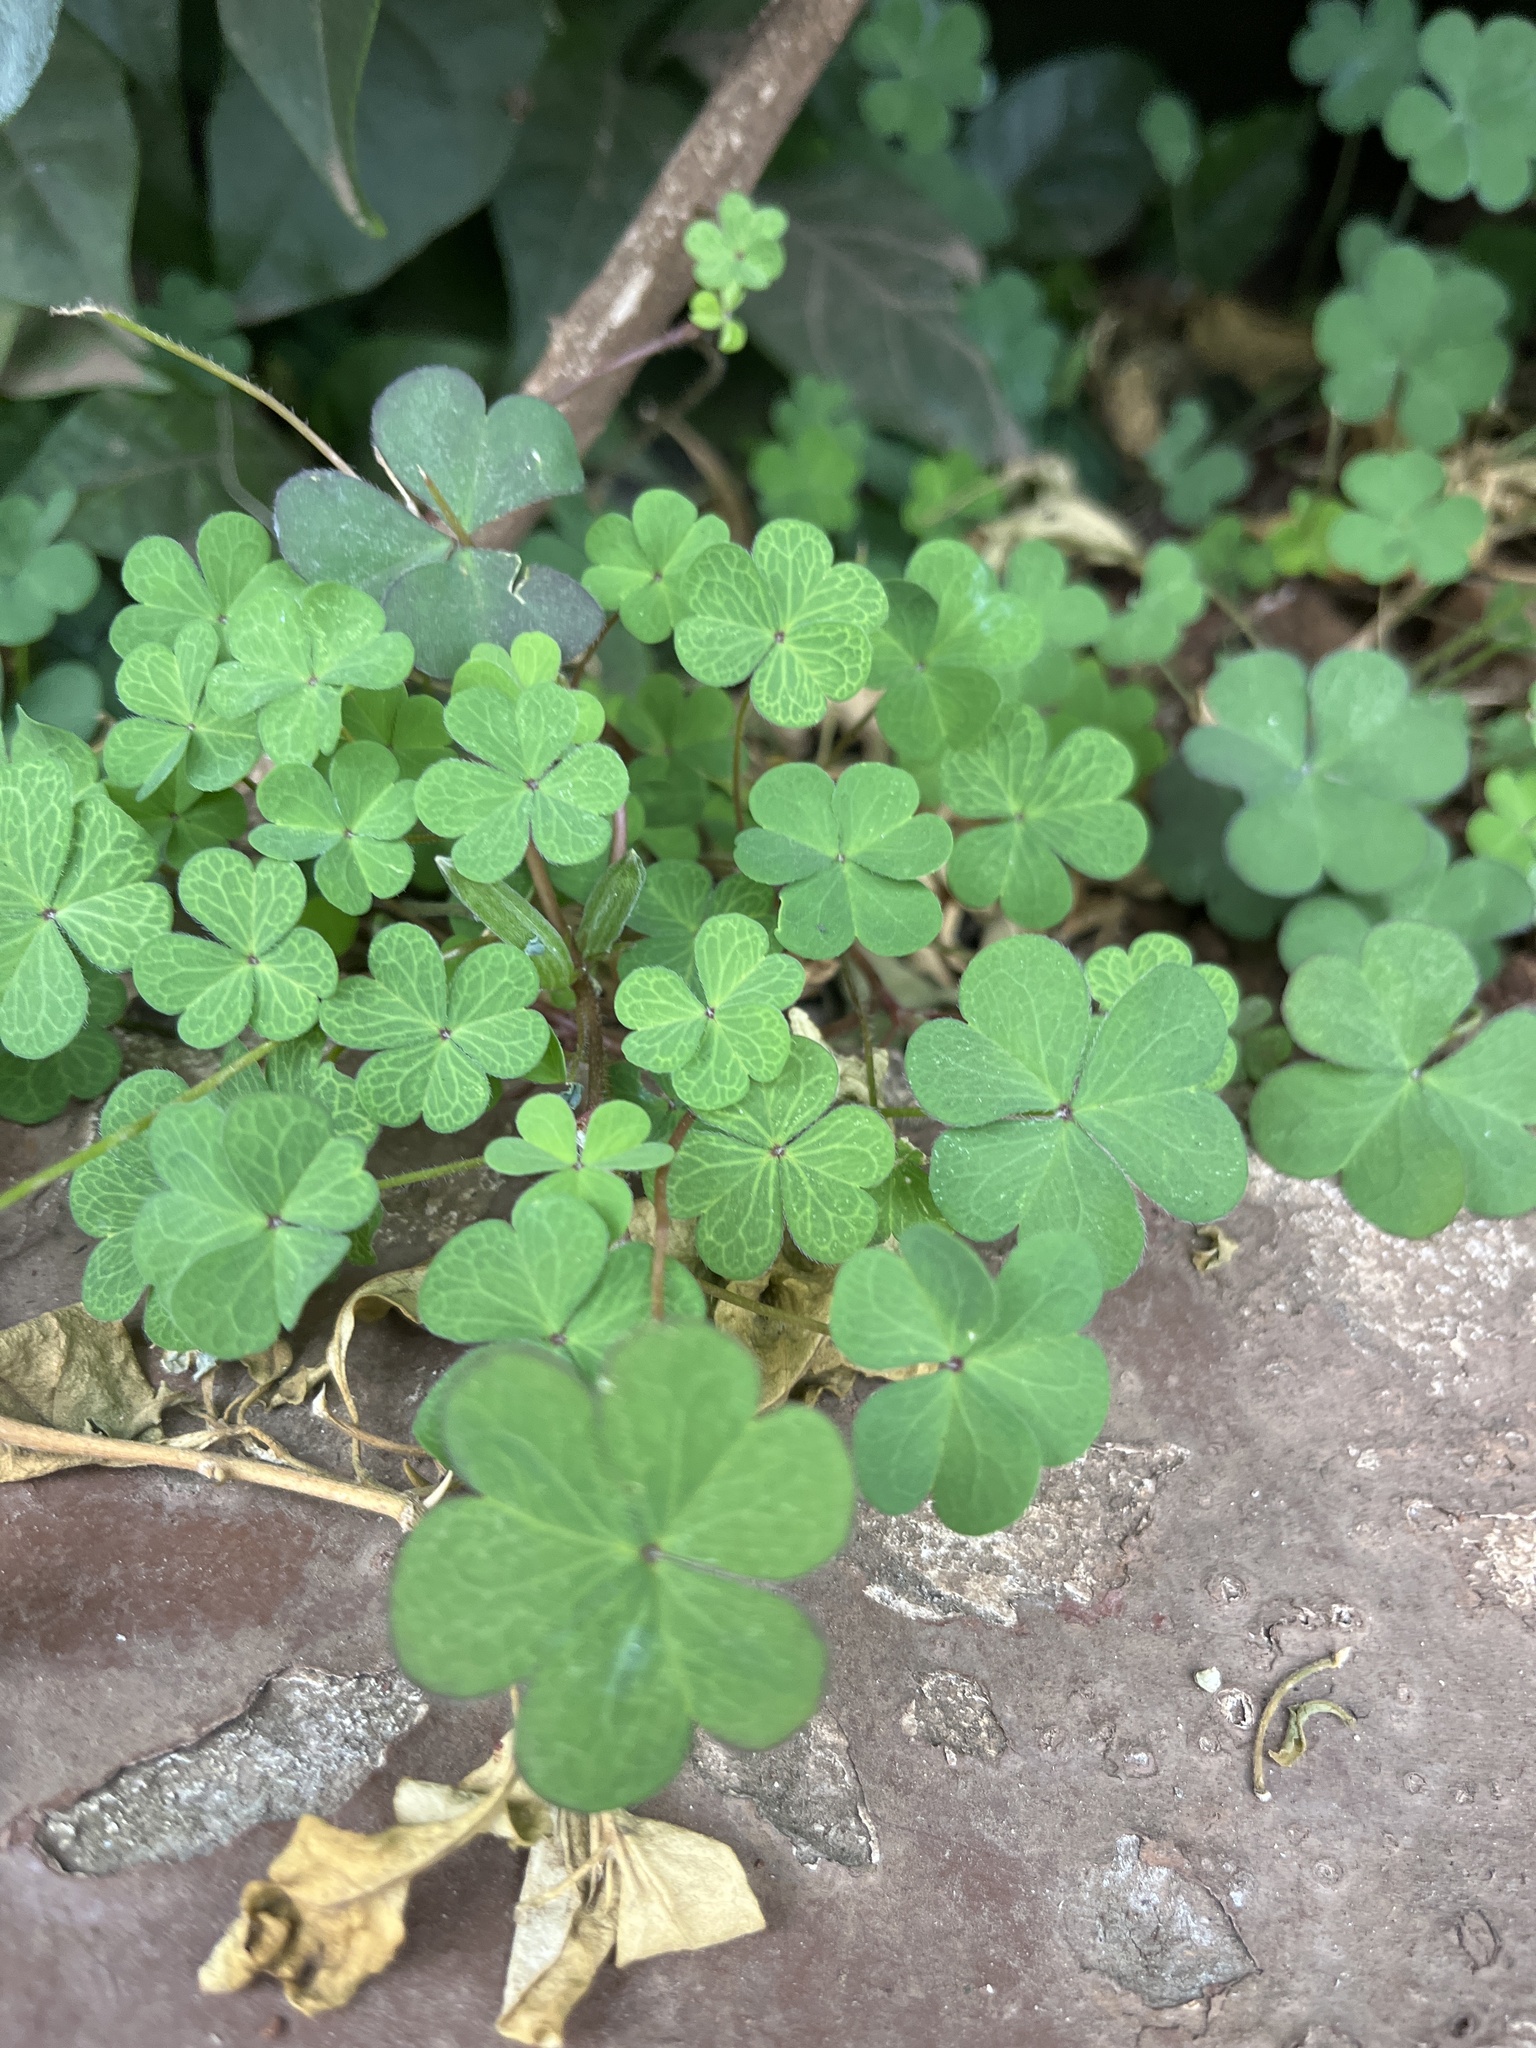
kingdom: Plantae
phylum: Tracheophyta
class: Magnoliopsida
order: Oxalidales
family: Oxalidaceae
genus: Oxalis
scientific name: Oxalis corniculata
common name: Procumbent yellow-sorrel
